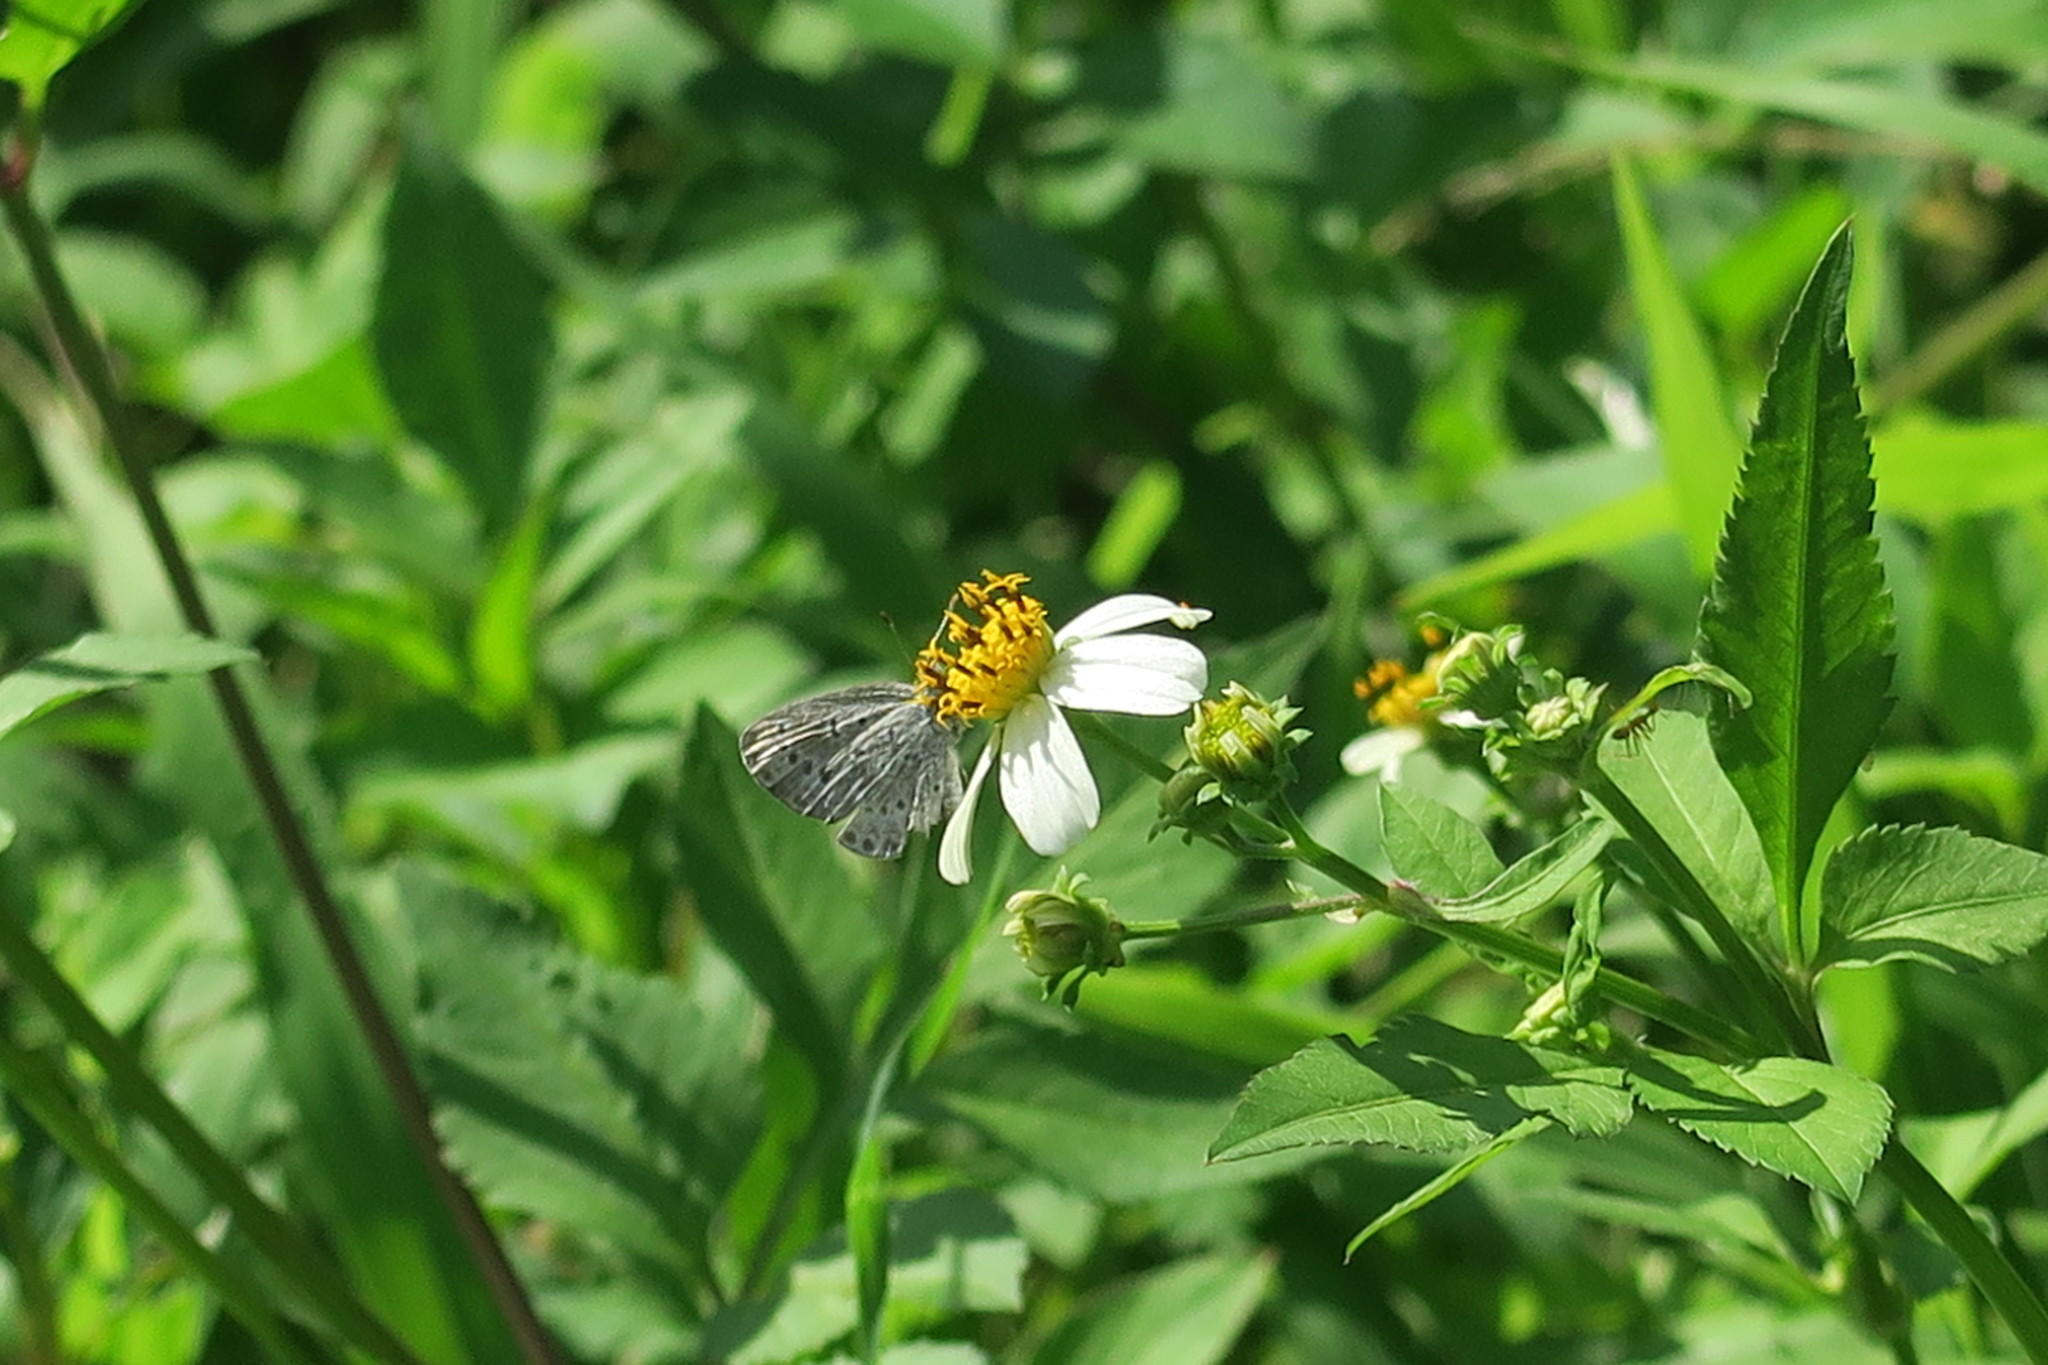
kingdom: Animalia
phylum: Arthropoda
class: Insecta
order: Lepidoptera
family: Lycaenidae
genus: Pseudozizeeria
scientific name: Pseudozizeeria maha
